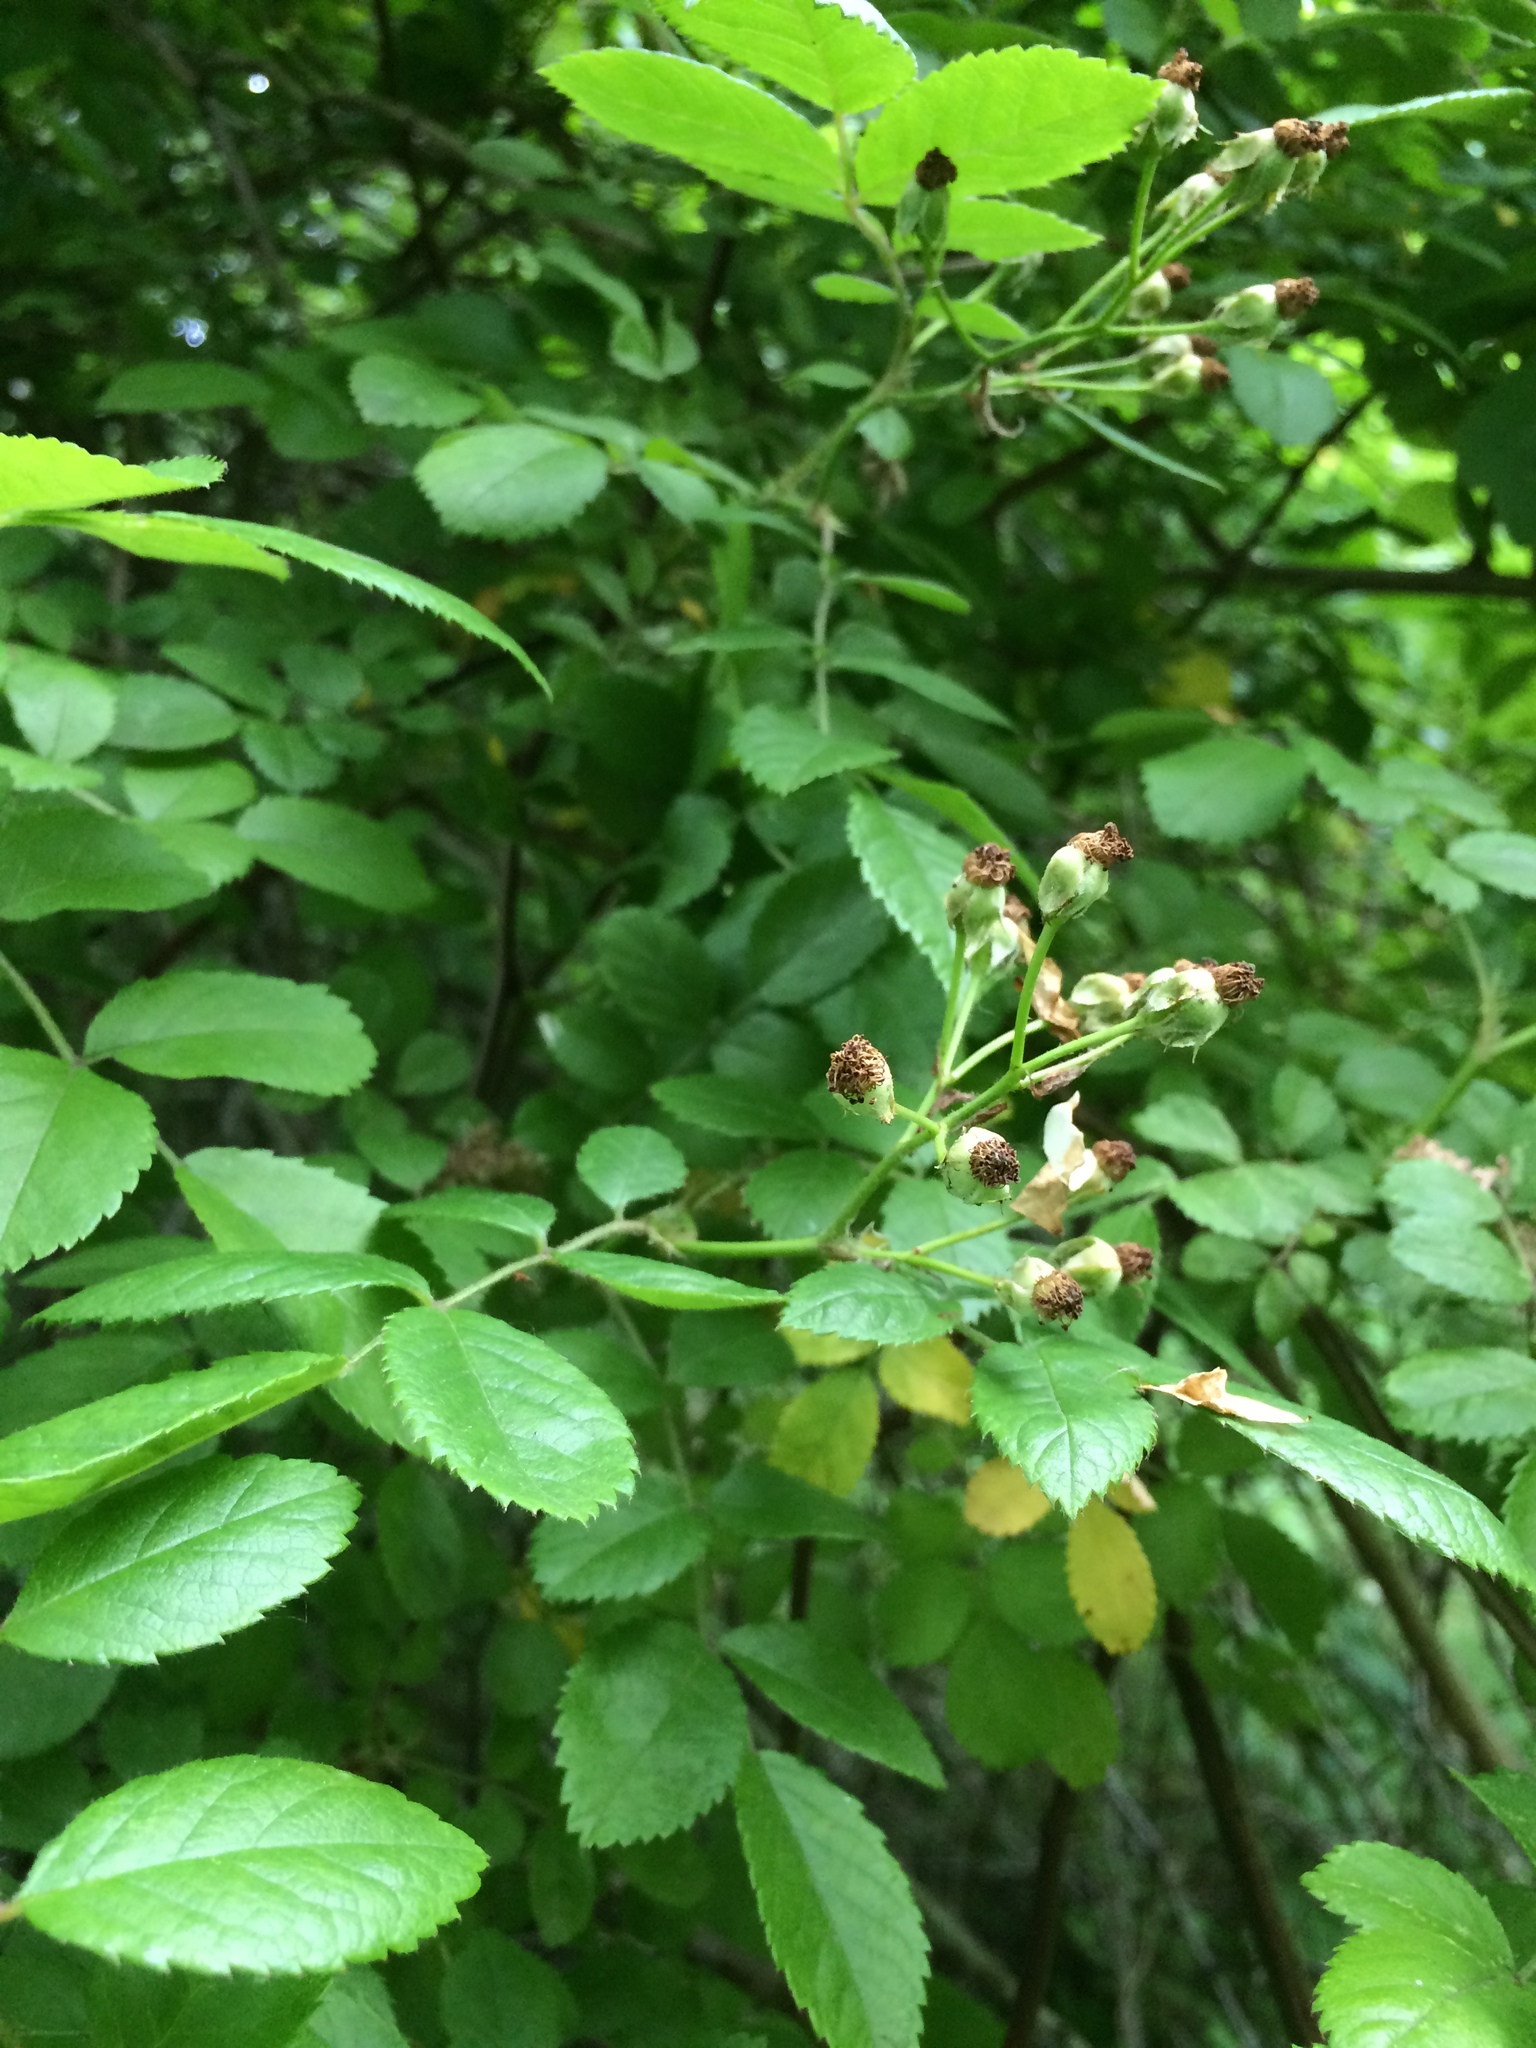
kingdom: Plantae
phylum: Tracheophyta
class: Magnoliopsida
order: Rosales
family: Rosaceae
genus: Rosa
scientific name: Rosa multiflora
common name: Multiflora rose
